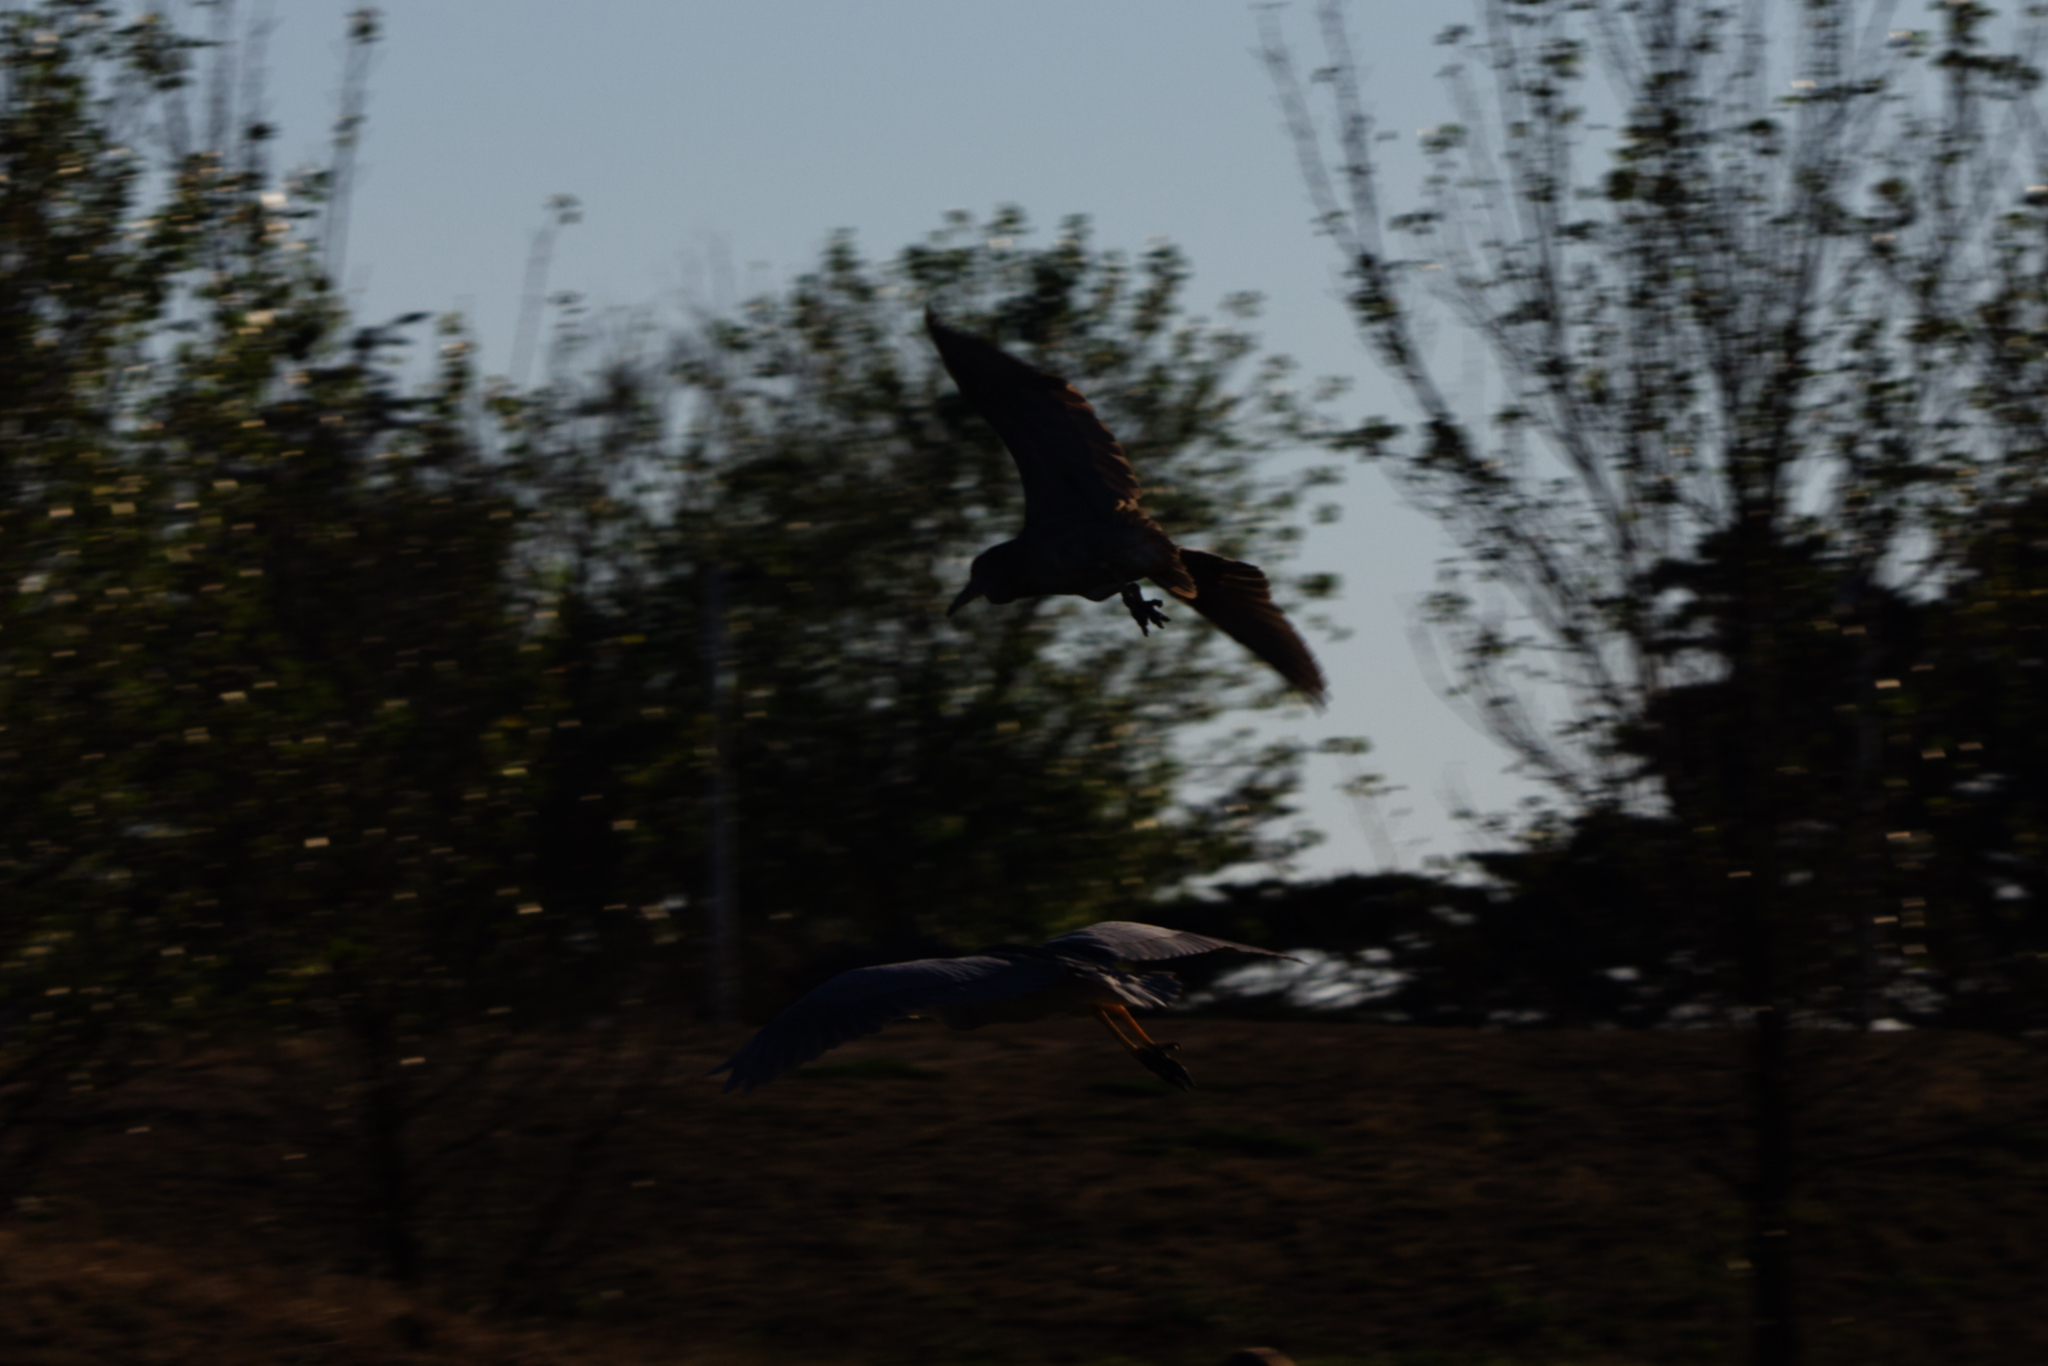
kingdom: Animalia
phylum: Chordata
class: Aves
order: Pelecaniformes
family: Ardeidae
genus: Nycticorax
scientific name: Nycticorax nycticorax
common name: Black-crowned night heron
